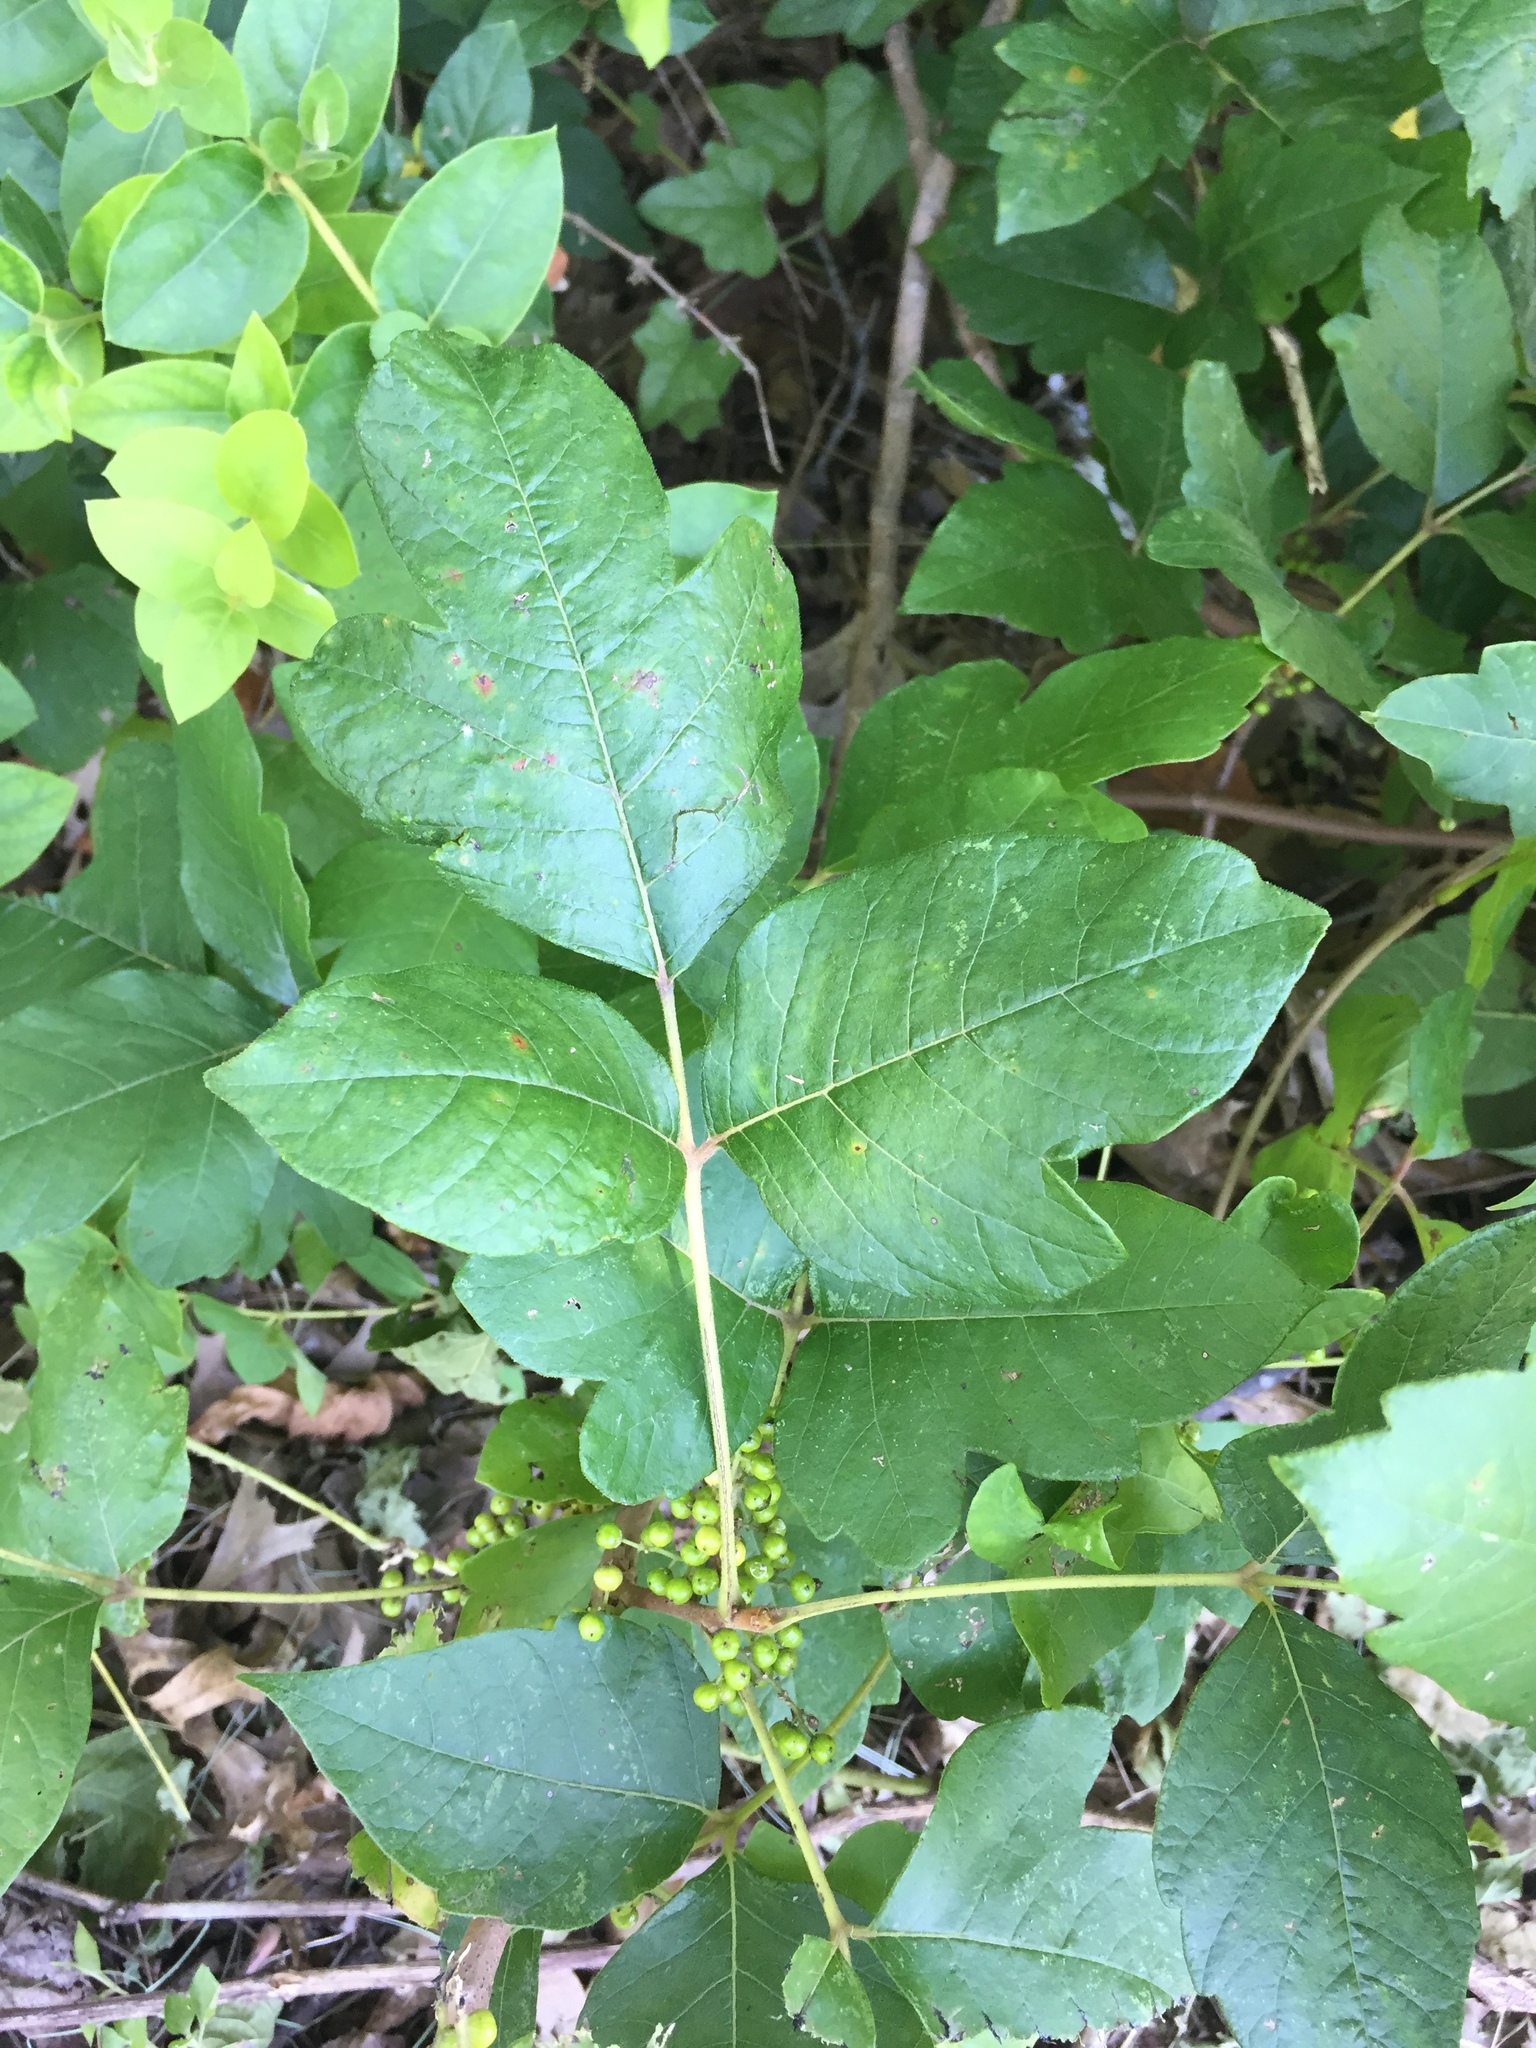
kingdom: Plantae
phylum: Tracheophyta
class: Magnoliopsida
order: Sapindales
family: Anacardiaceae
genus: Toxicodendron
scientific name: Toxicodendron radicans
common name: Poison ivy
